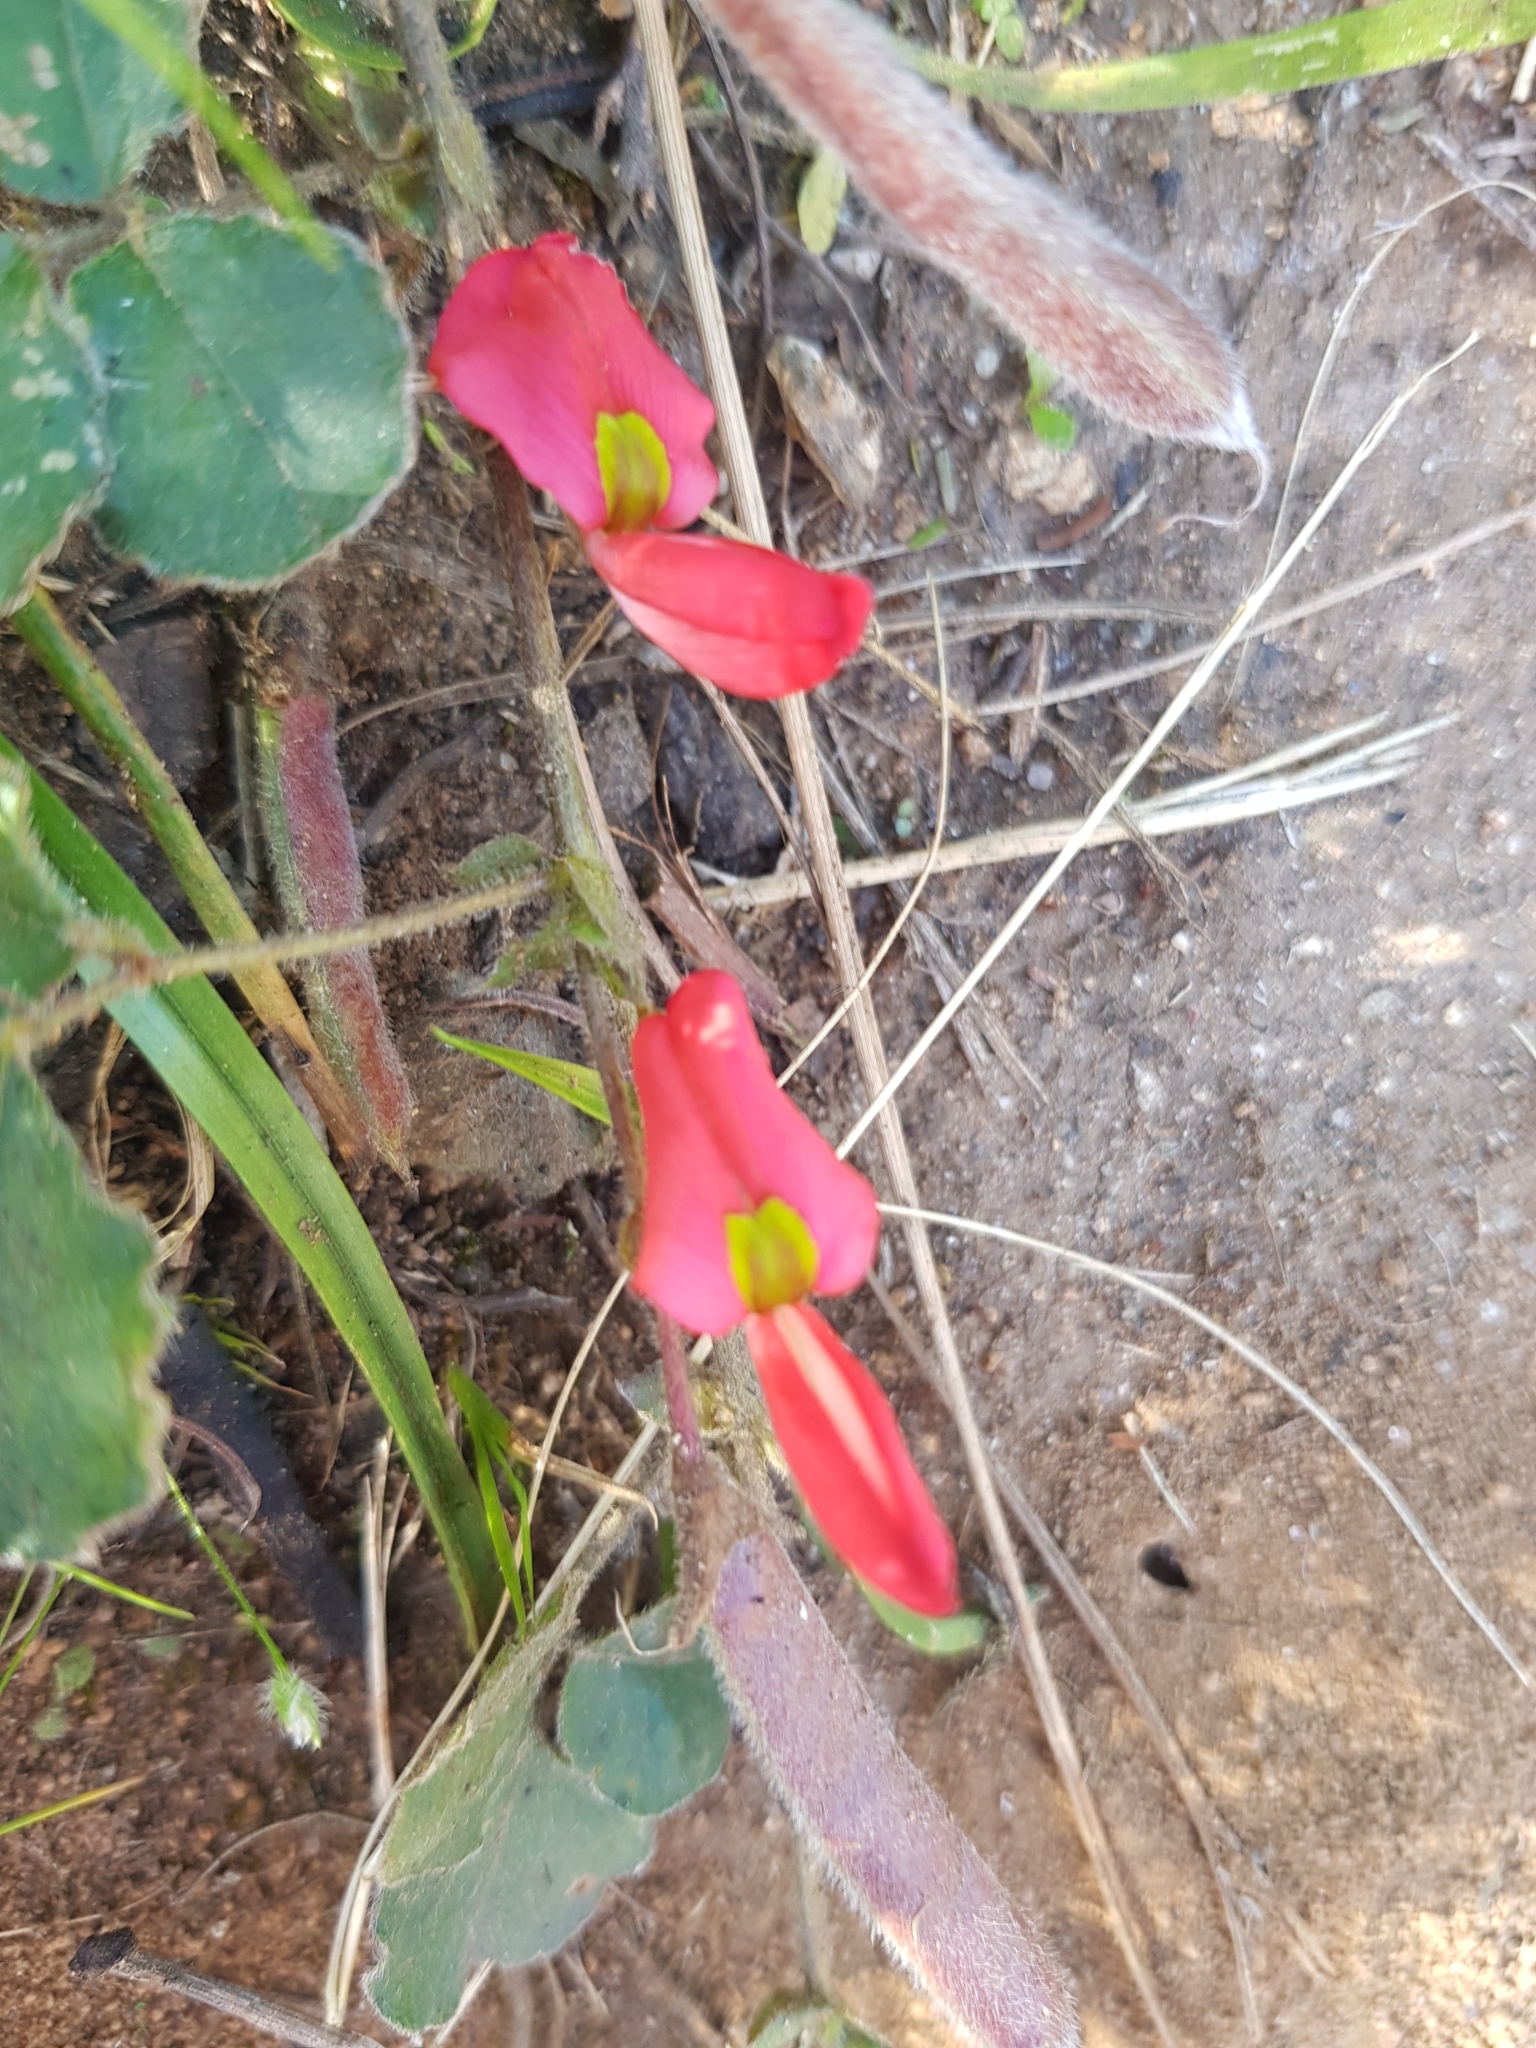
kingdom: Plantae
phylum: Tracheophyta
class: Magnoliopsida
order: Fabales
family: Fabaceae
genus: Kennedia
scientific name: Kennedia prostrata
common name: Running-postman
